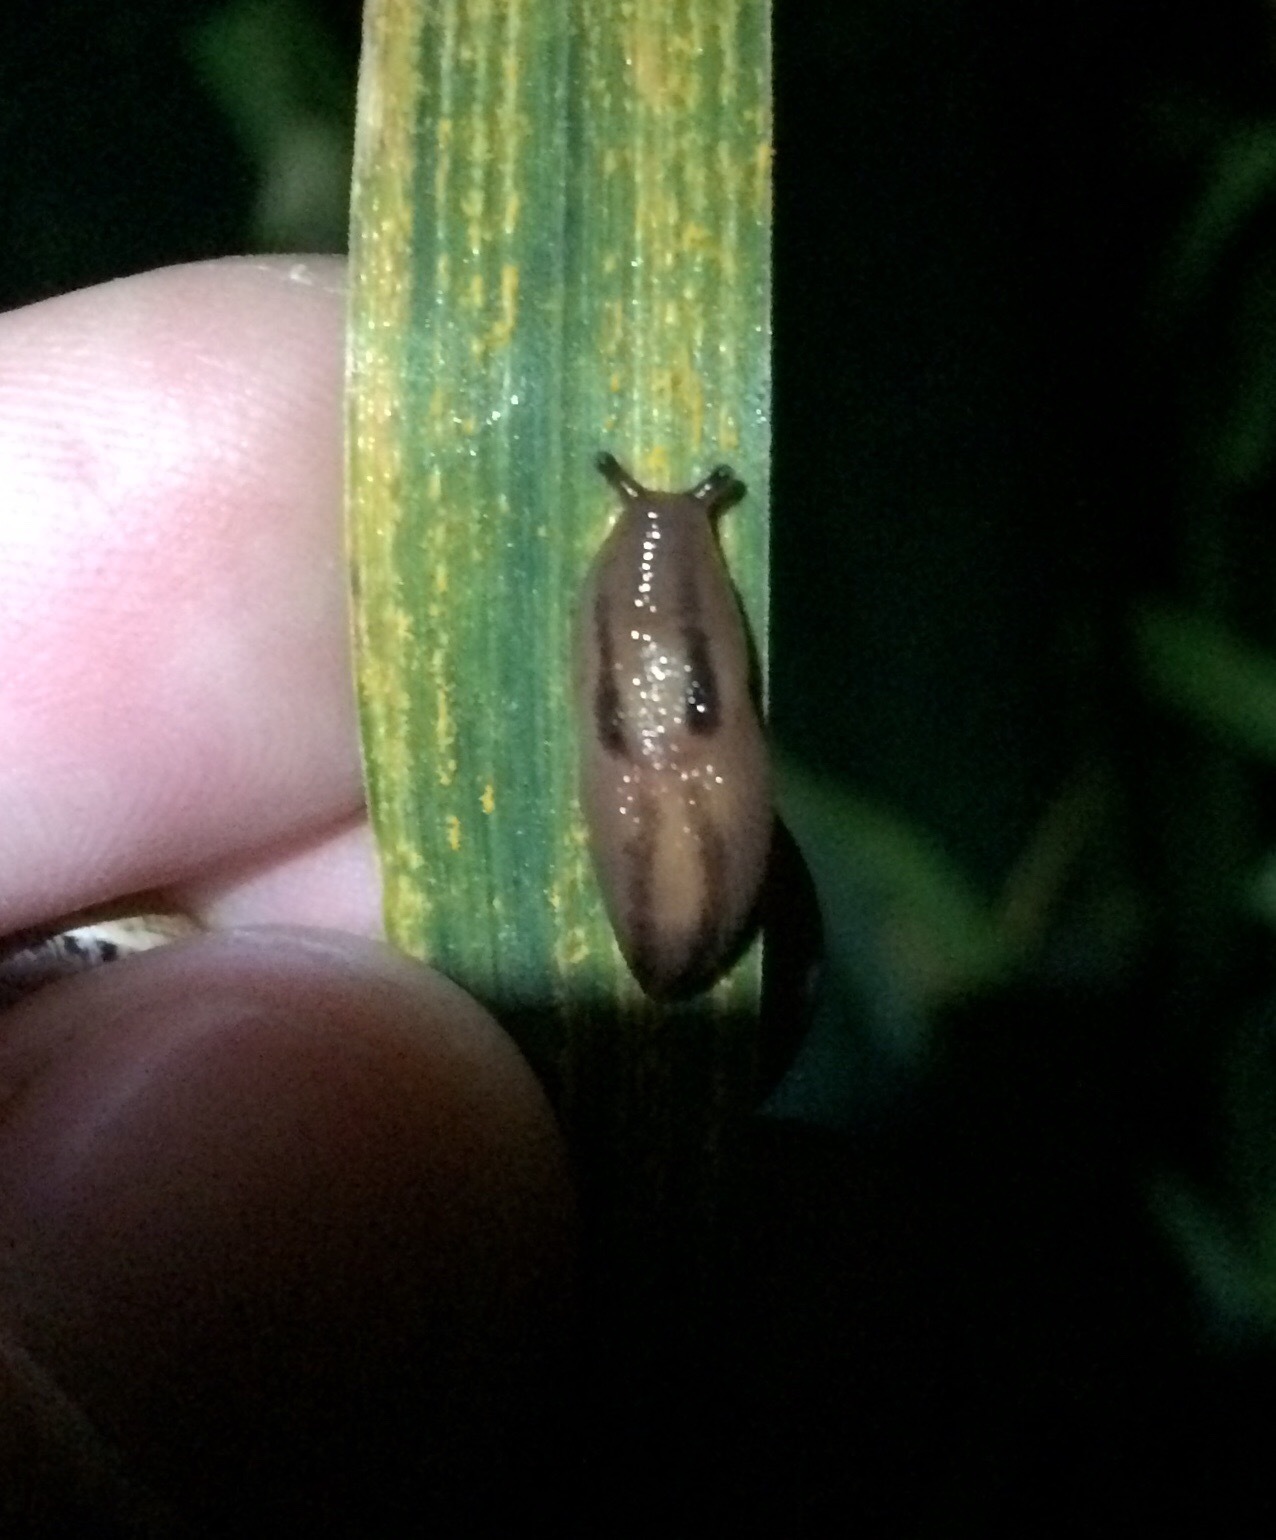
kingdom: Animalia
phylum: Mollusca
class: Gastropoda
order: Stylommatophora
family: Limacidae
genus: Ambigolimax
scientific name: Ambigolimax
